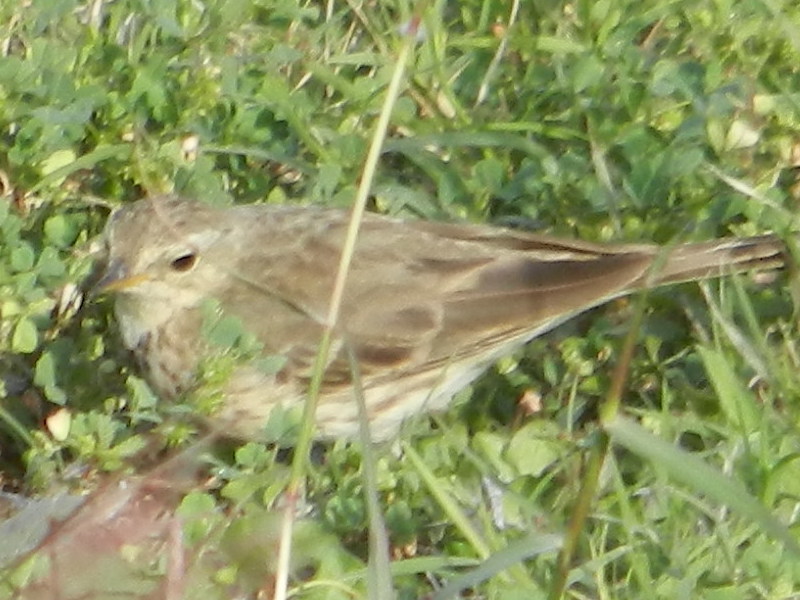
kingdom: Animalia
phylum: Chordata
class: Aves
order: Passeriformes
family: Motacillidae
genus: Anthus
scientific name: Anthus rubescens
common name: Buff-bellied pipit
